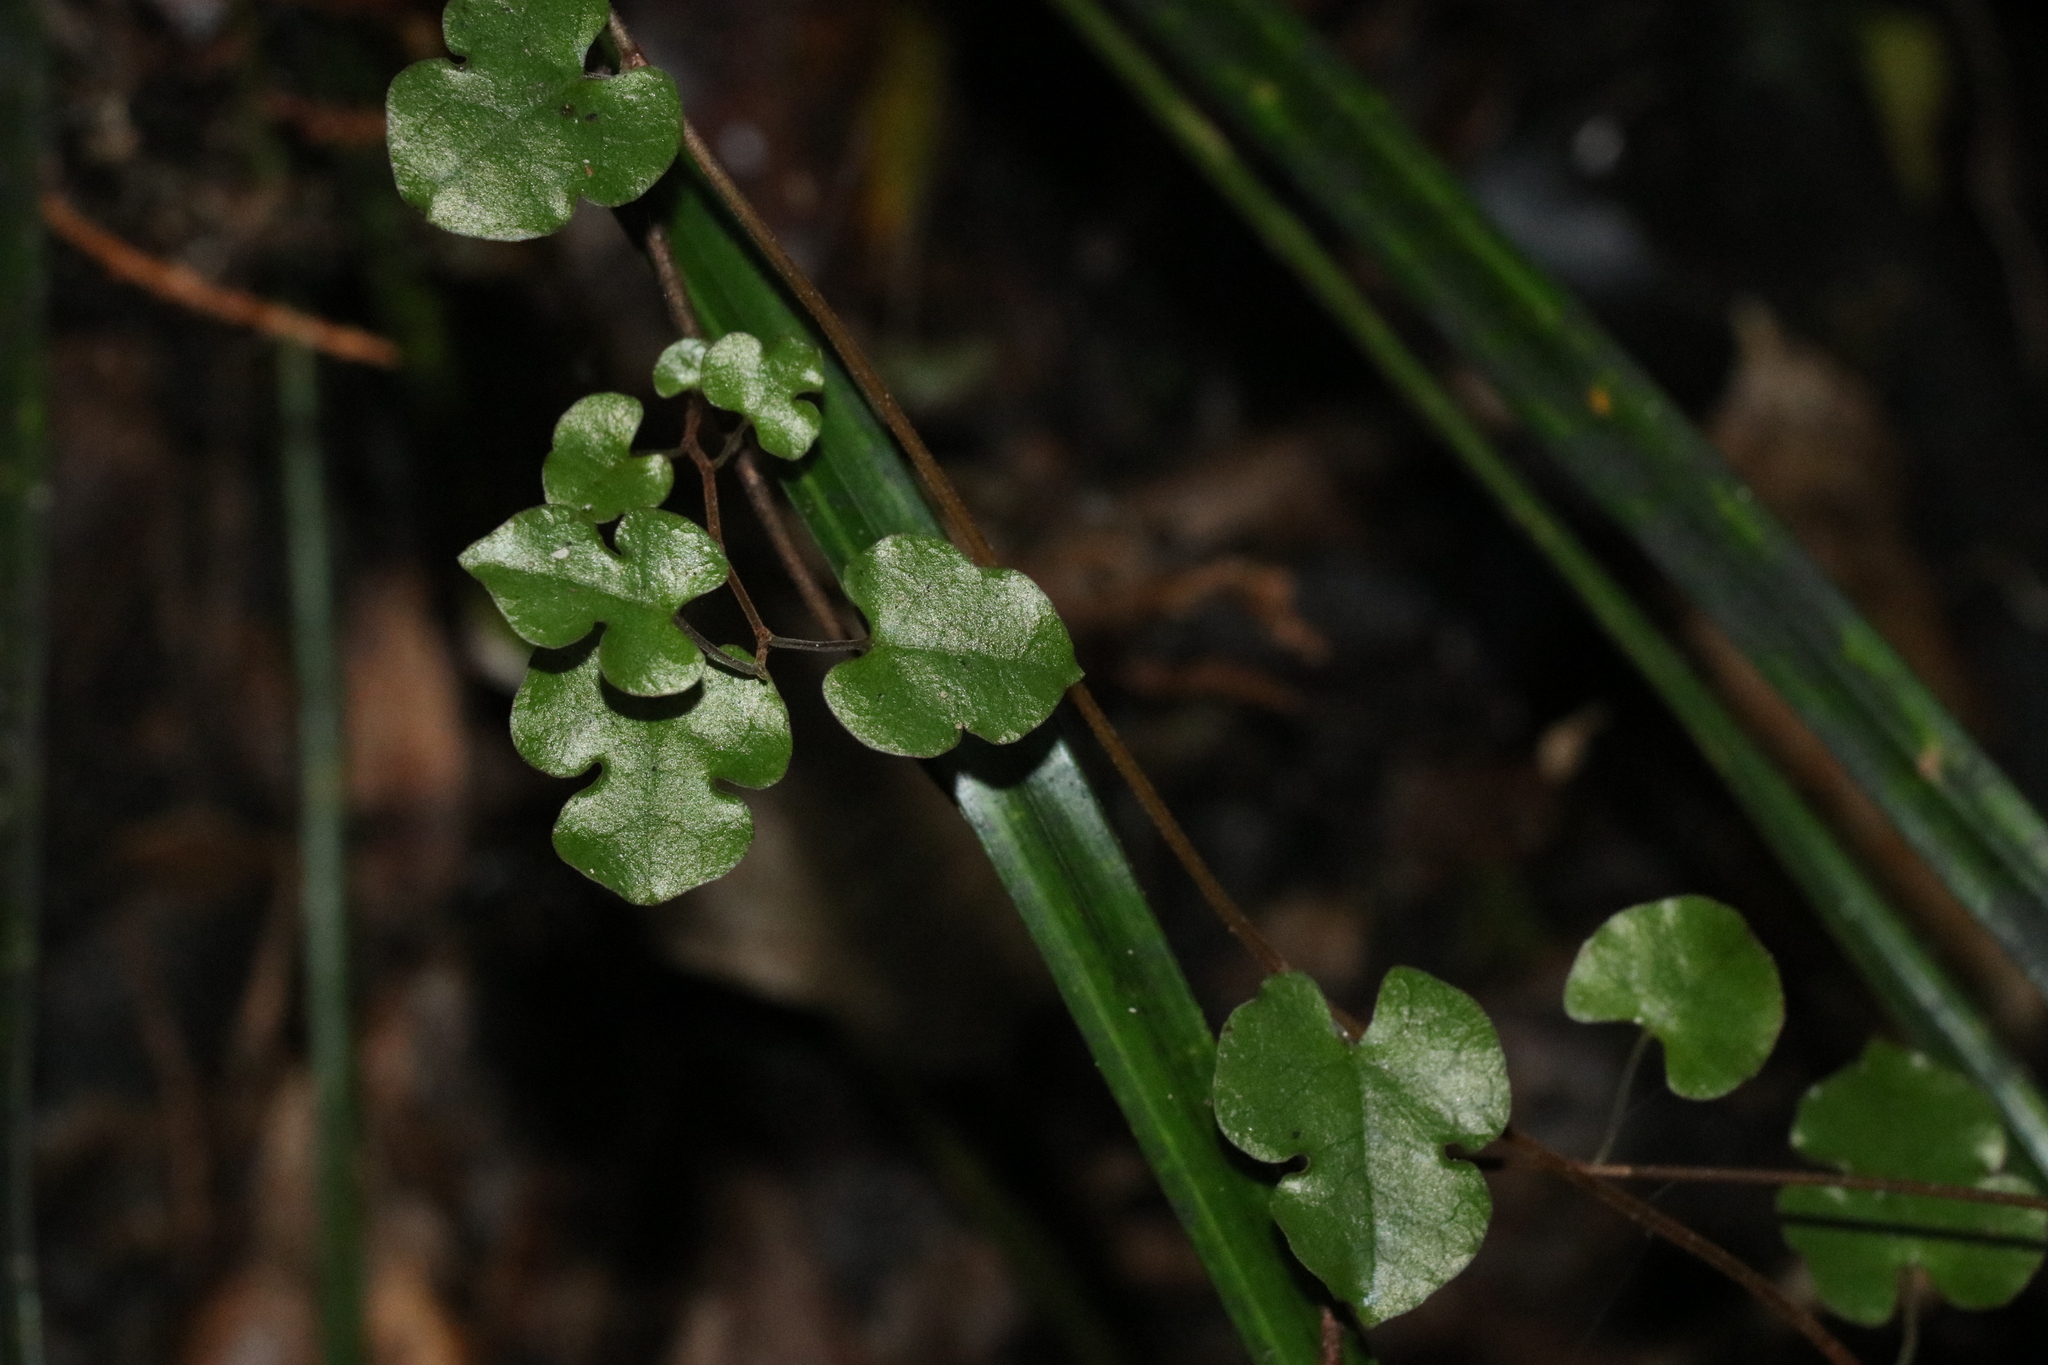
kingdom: Plantae
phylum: Tracheophyta
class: Magnoliopsida
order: Caryophyllales
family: Polygonaceae
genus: Muehlenbeckia
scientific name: Muehlenbeckia australis
